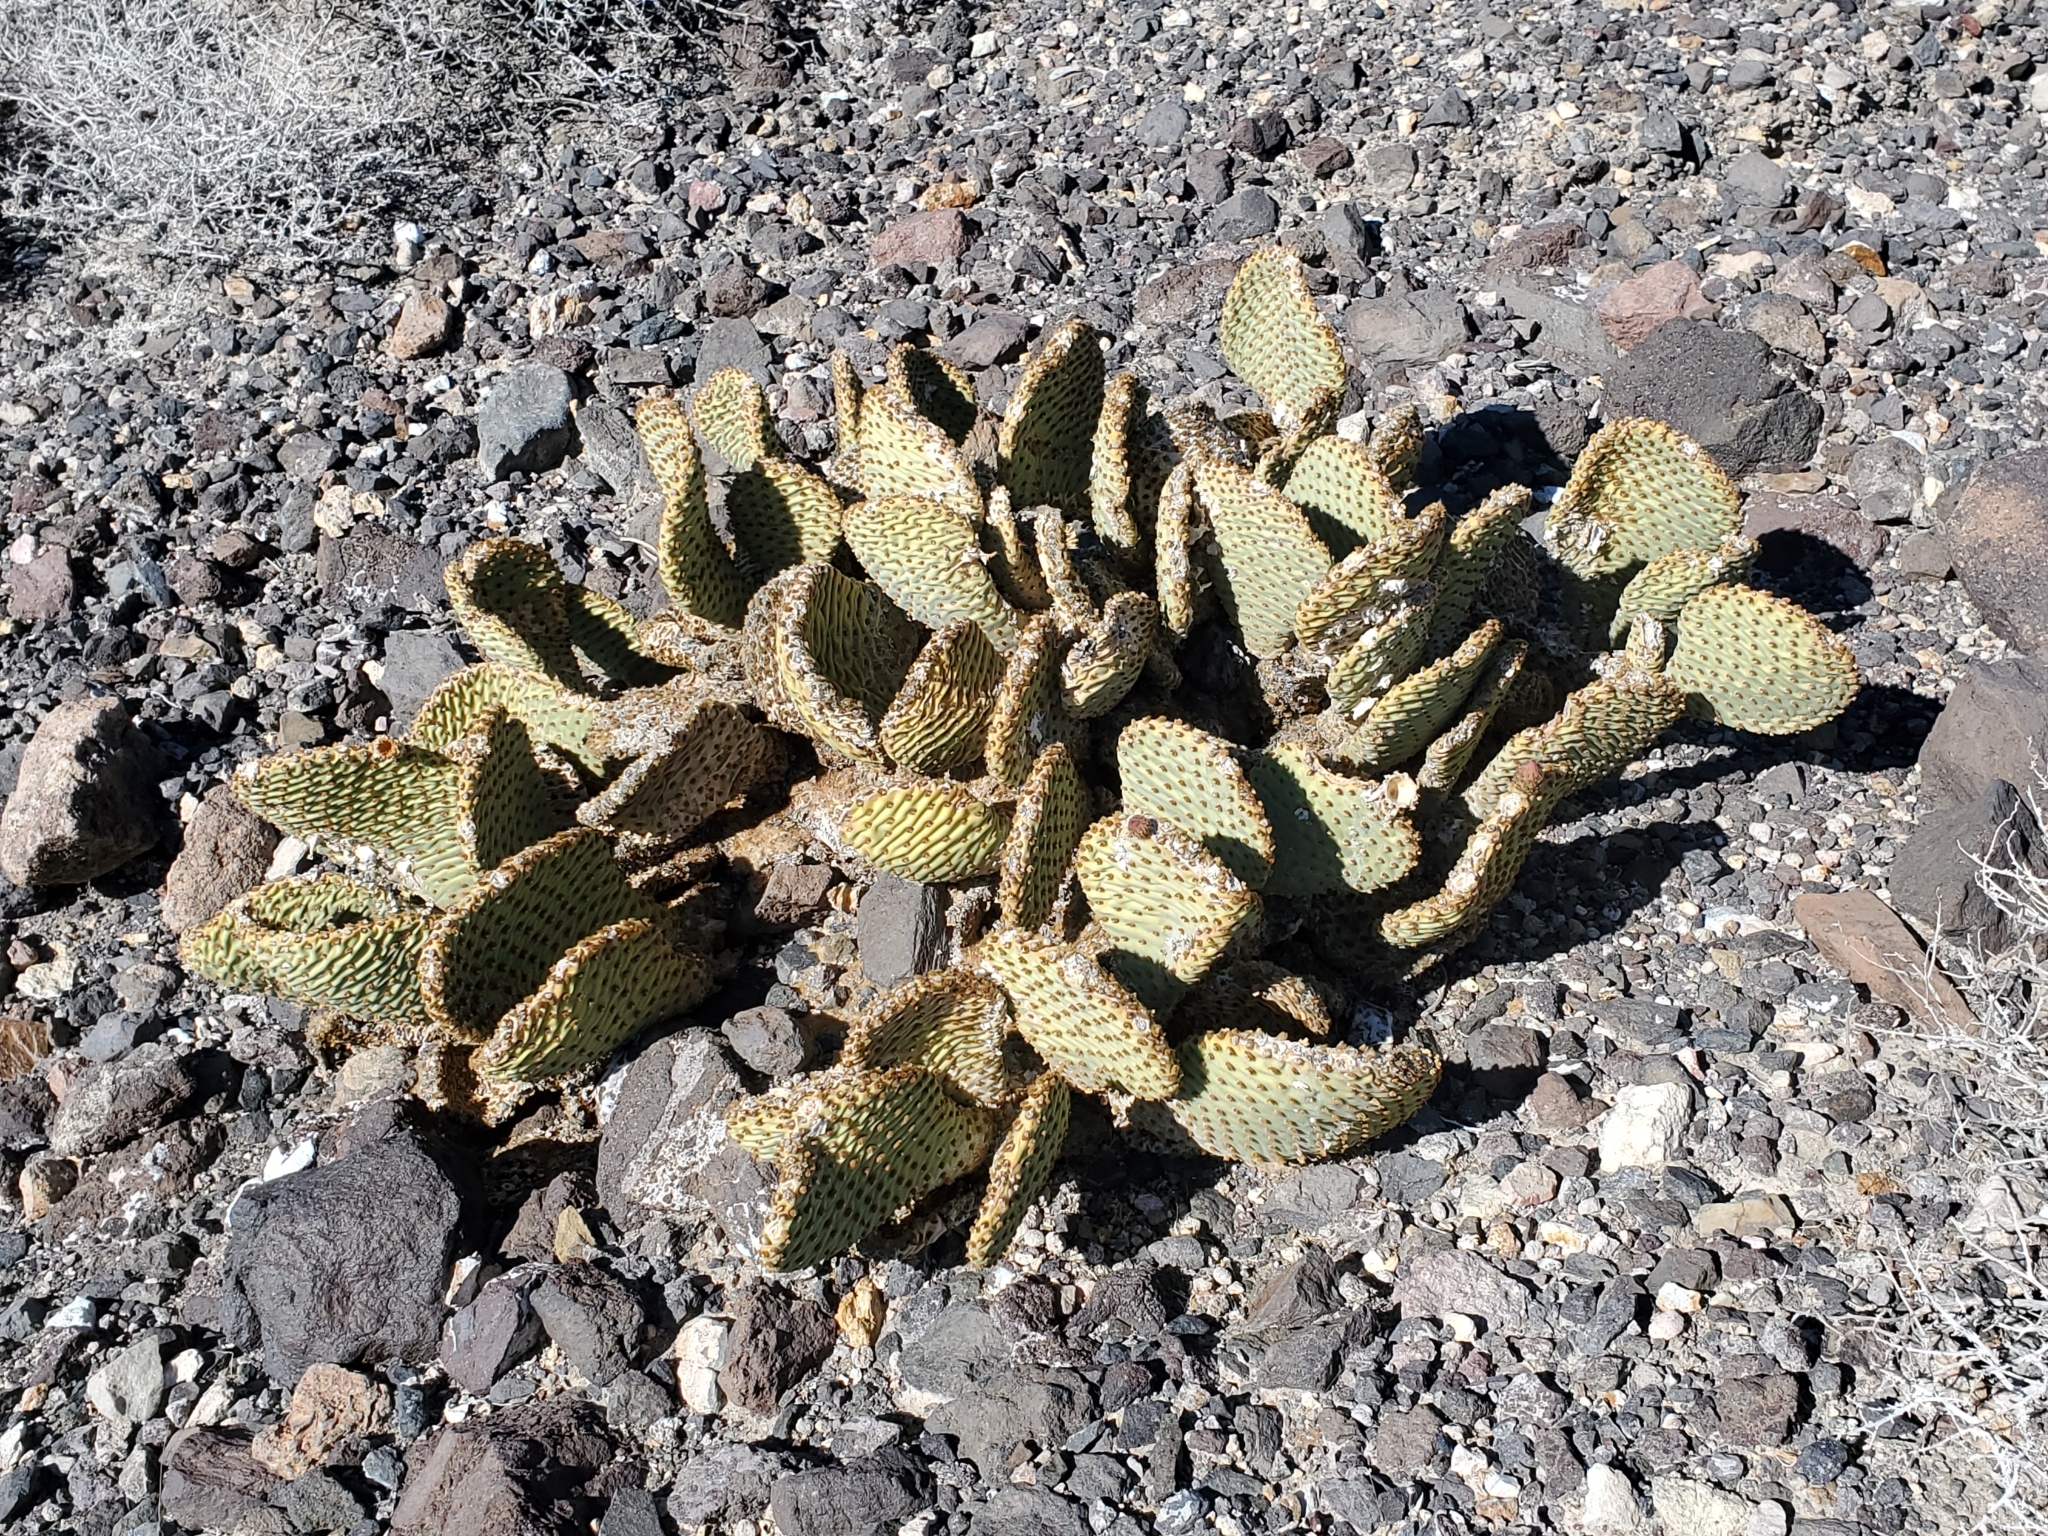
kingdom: Plantae
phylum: Tracheophyta
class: Magnoliopsida
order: Caryophyllales
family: Cactaceae
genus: Opuntia
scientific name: Opuntia basilaris
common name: Beavertail prickly-pear
